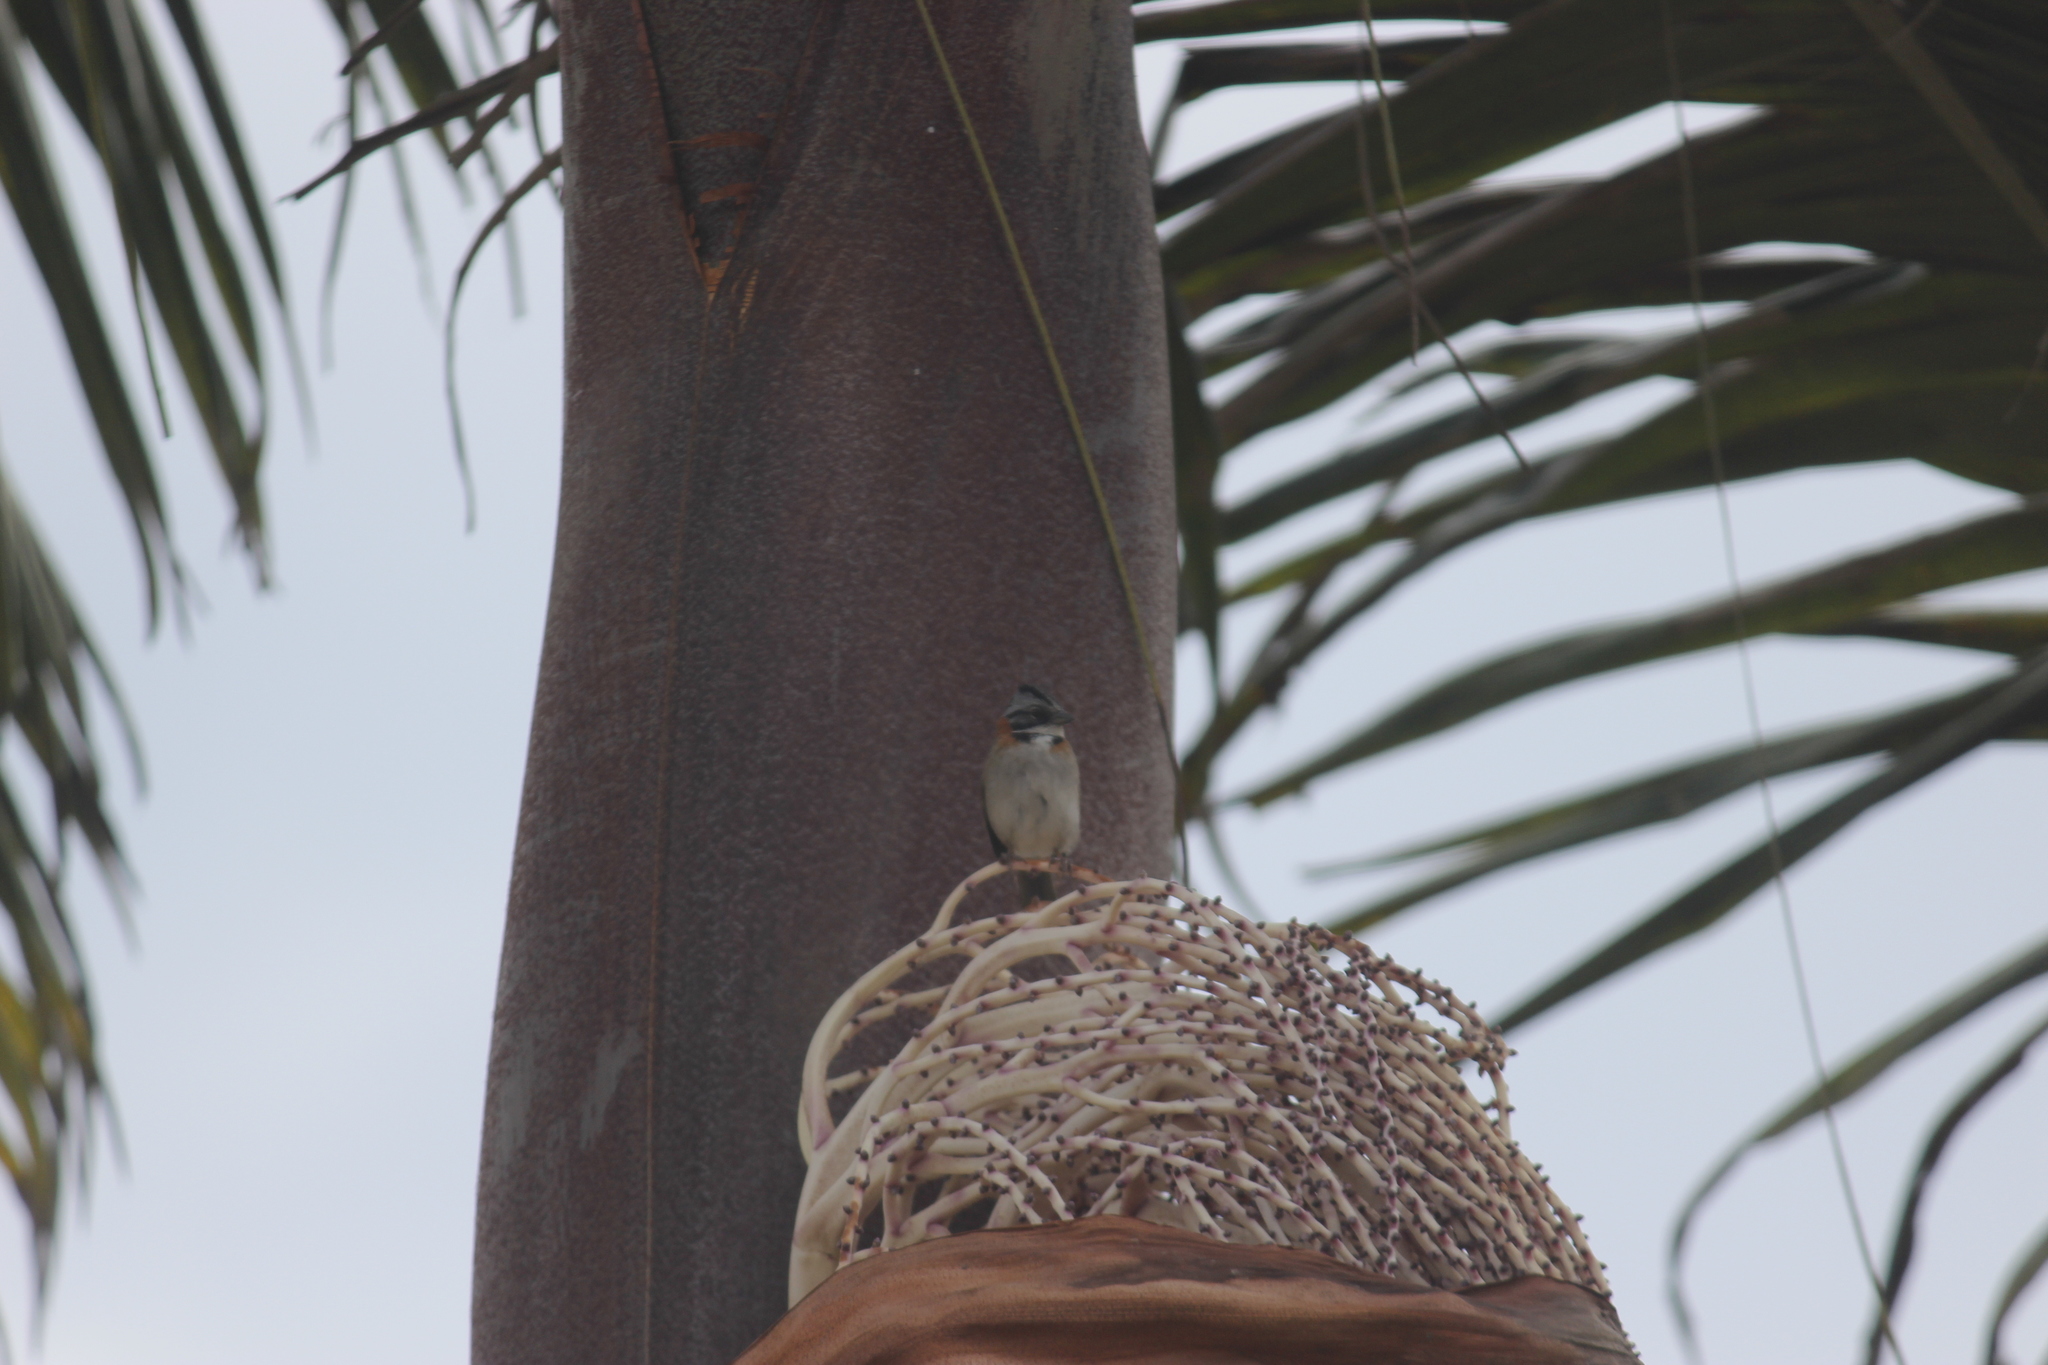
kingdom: Animalia
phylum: Chordata
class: Aves
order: Passeriformes
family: Passerellidae
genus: Zonotrichia
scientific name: Zonotrichia capensis
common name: Rufous-collared sparrow
